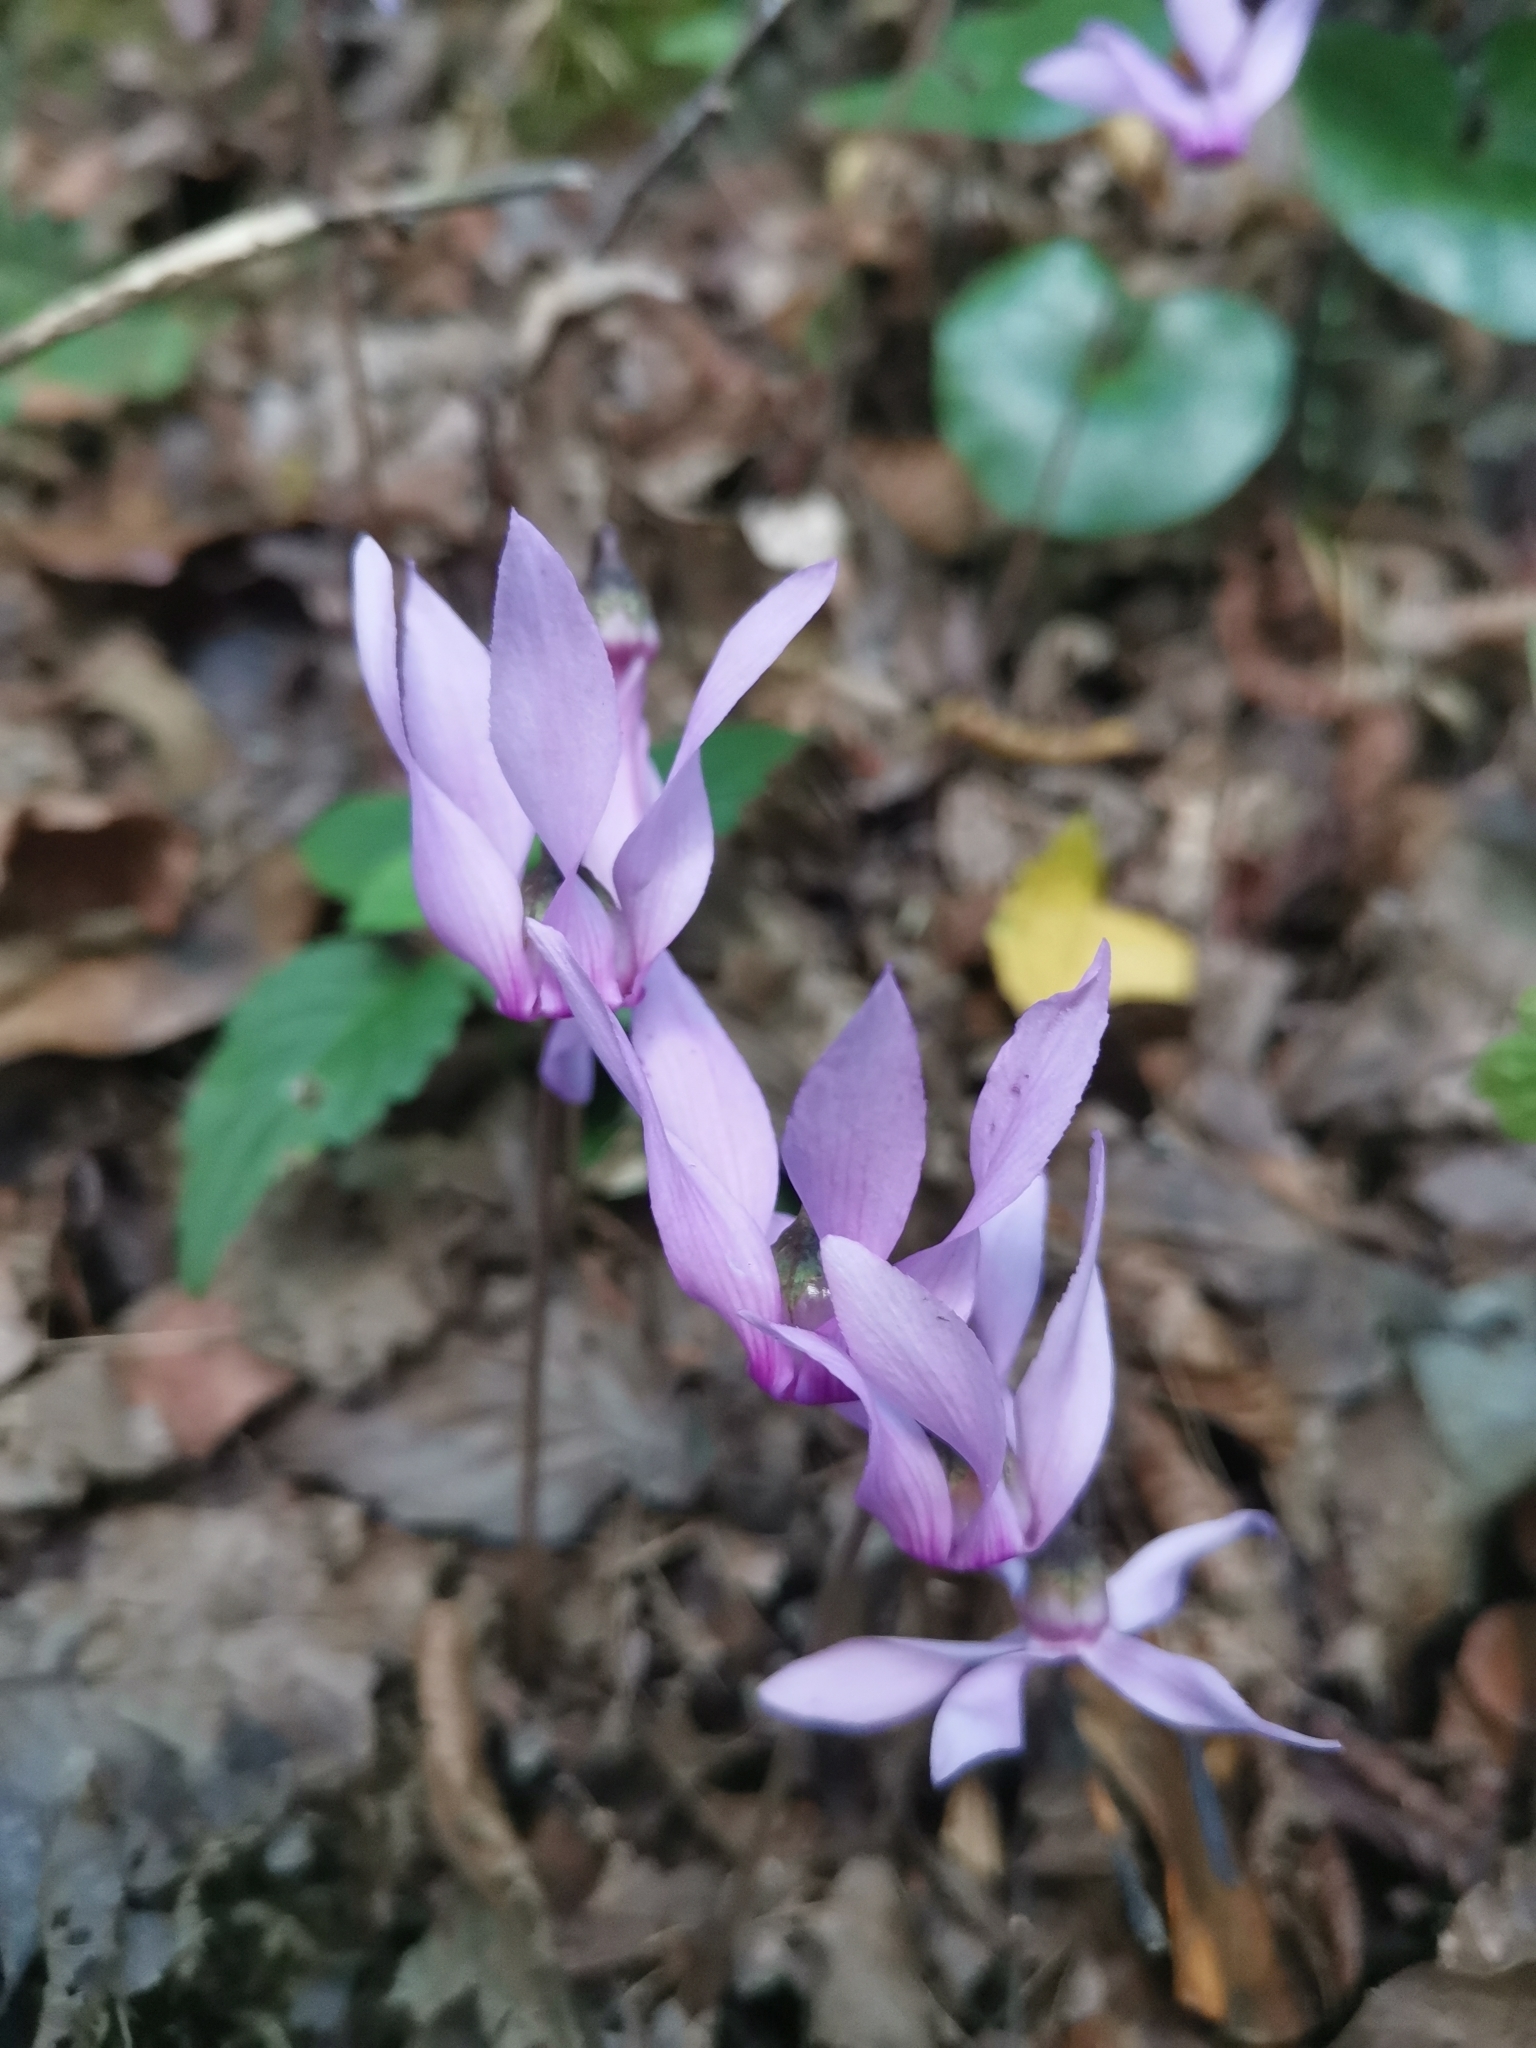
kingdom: Plantae
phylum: Tracheophyta
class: Magnoliopsida
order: Ericales
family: Primulaceae
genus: Cyclamen
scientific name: Cyclamen purpurascens
